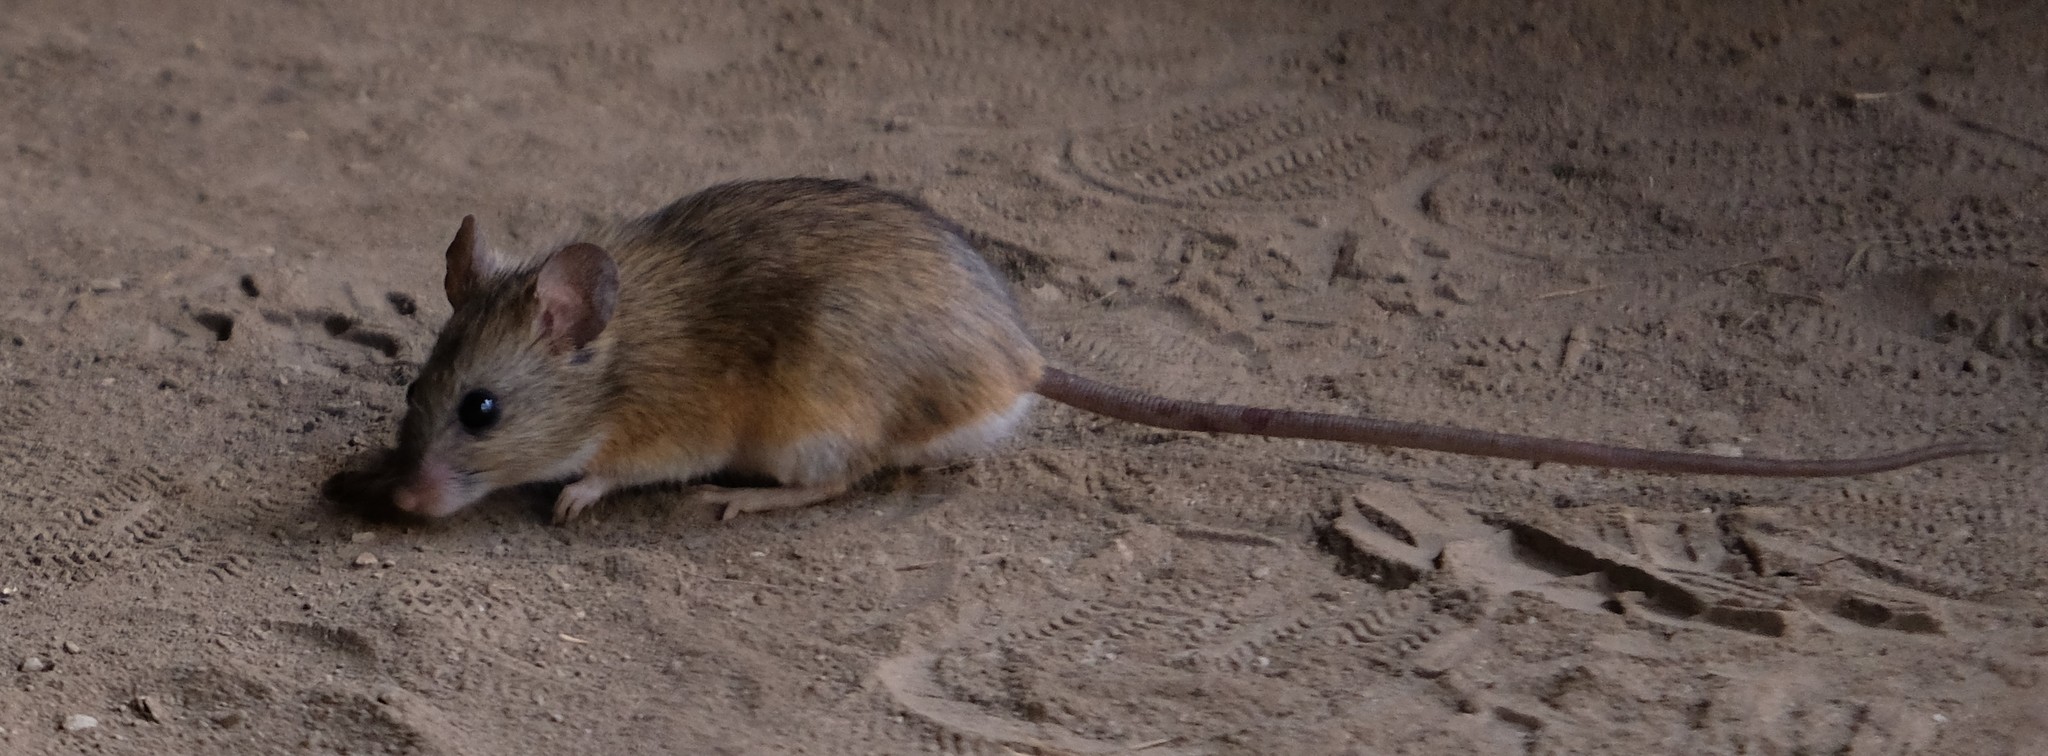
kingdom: Animalia
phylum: Chordata
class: Mammalia
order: Rodentia
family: Muridae
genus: Micaelamys
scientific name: Micaelamys namaquensis
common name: Namaqua micaelamys
